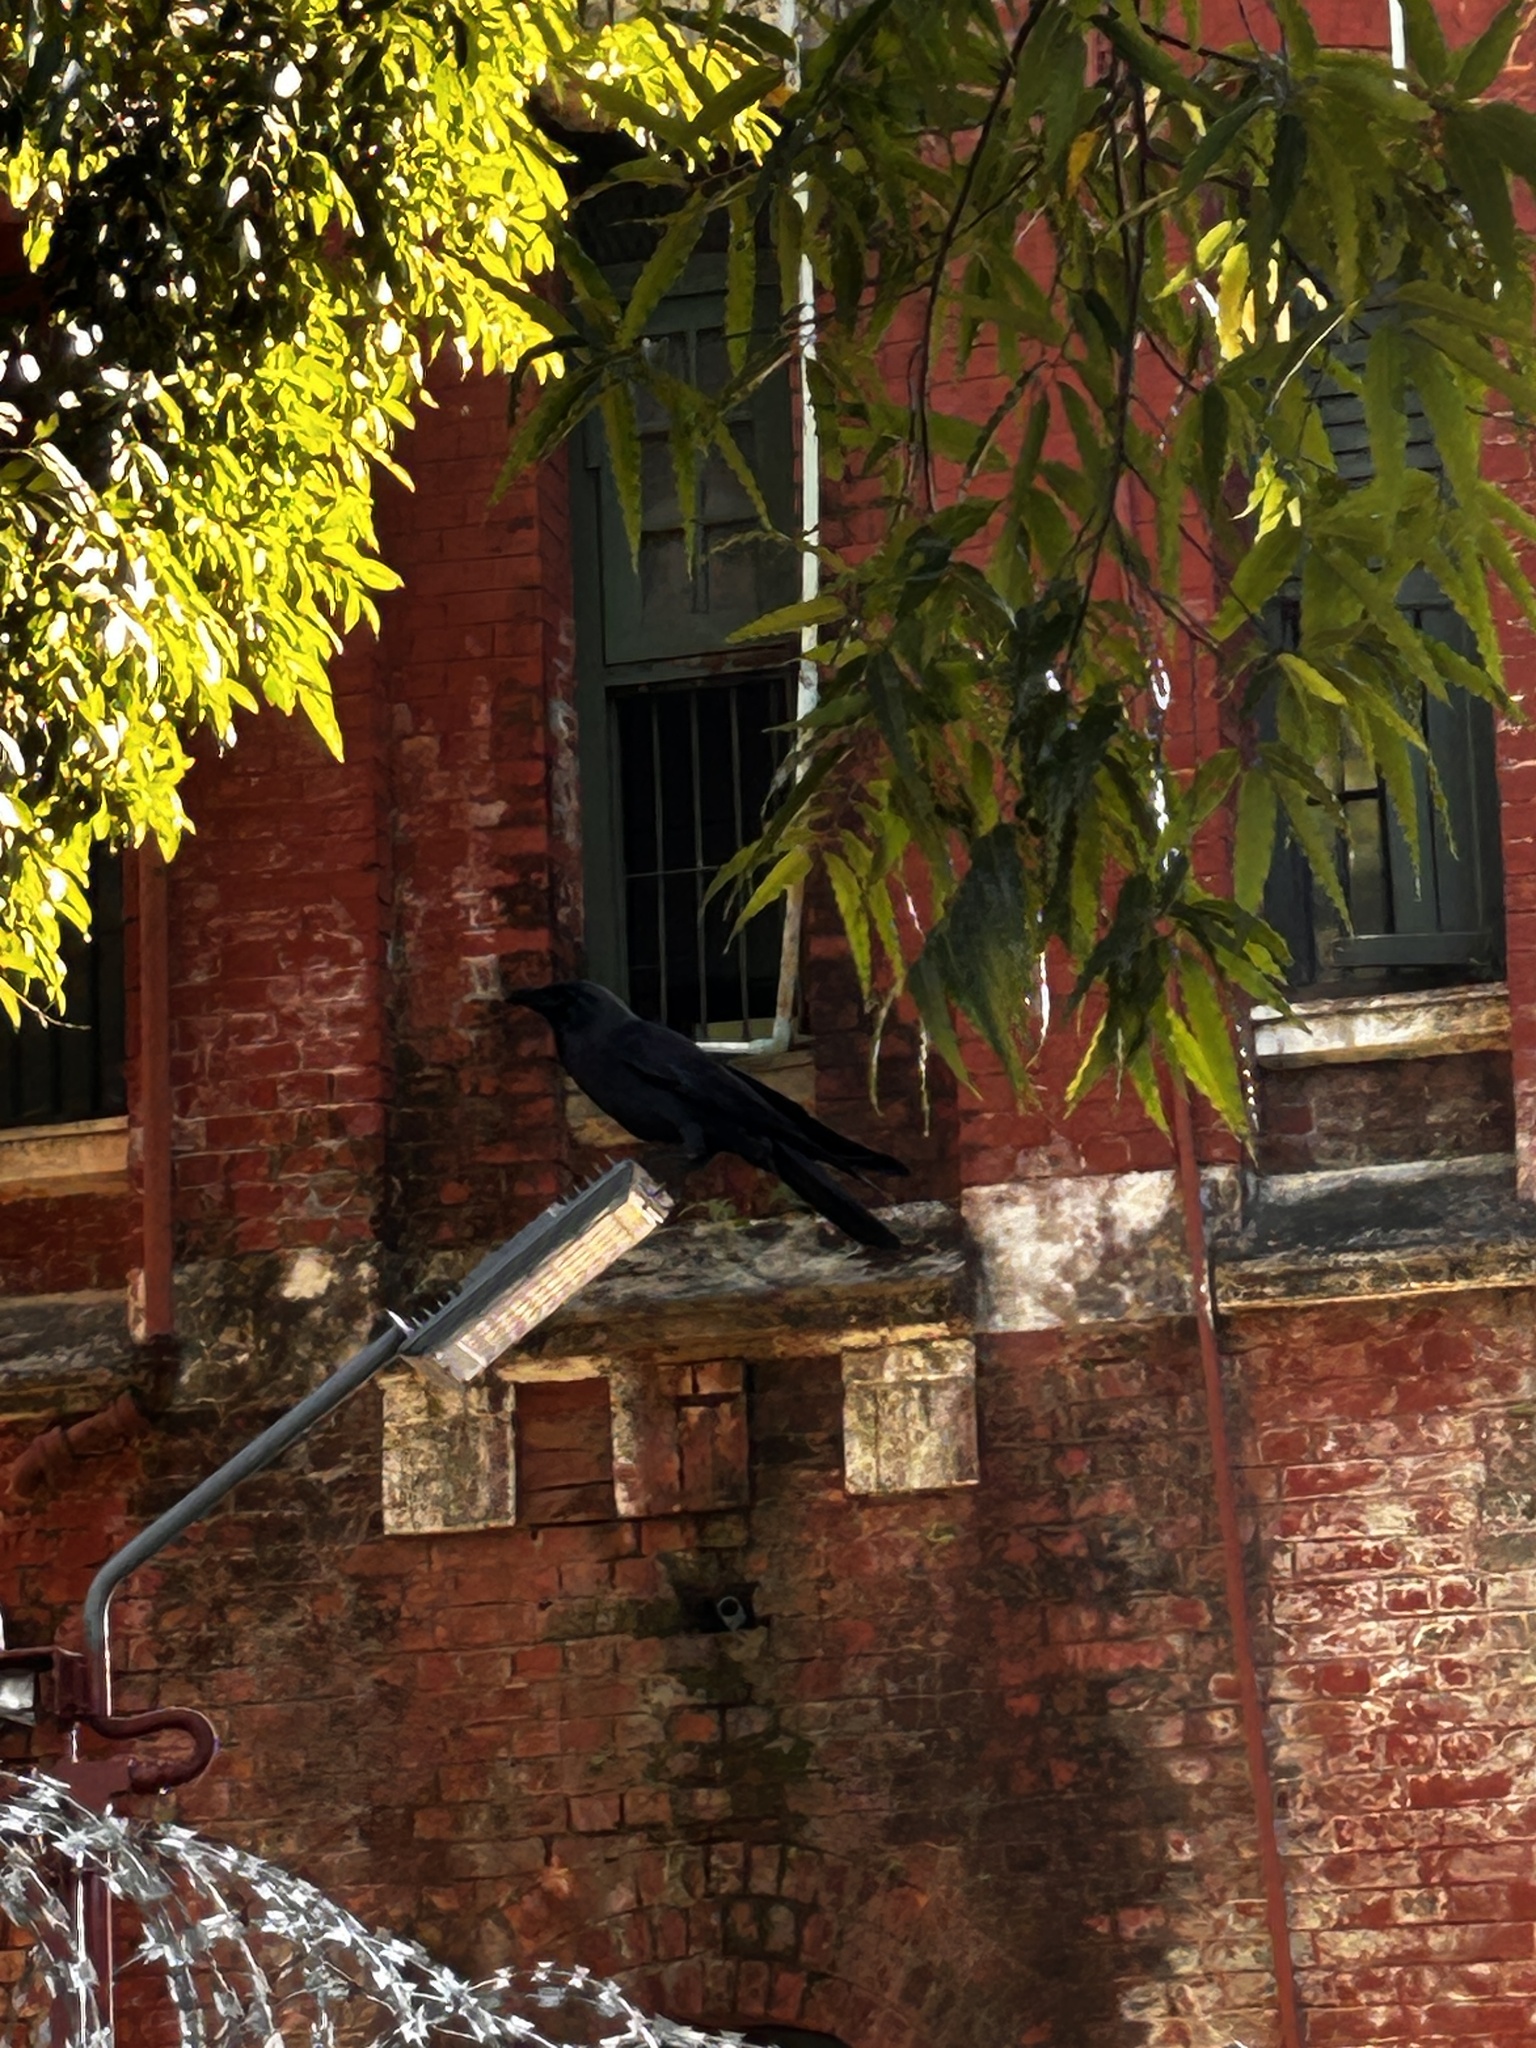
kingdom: Animalia
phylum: Chordata
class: Aves
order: Passeriformes
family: Corvidae
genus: Corvus
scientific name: Corvus splendens
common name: House crow
